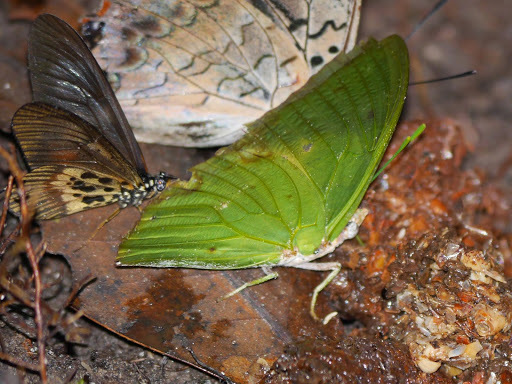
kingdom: Animalia
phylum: Arthropoda
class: Insecta
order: Lepidoptera
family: Nymphalidae
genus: Charaxes
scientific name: Charaxes eupale
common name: Common green charaxes
